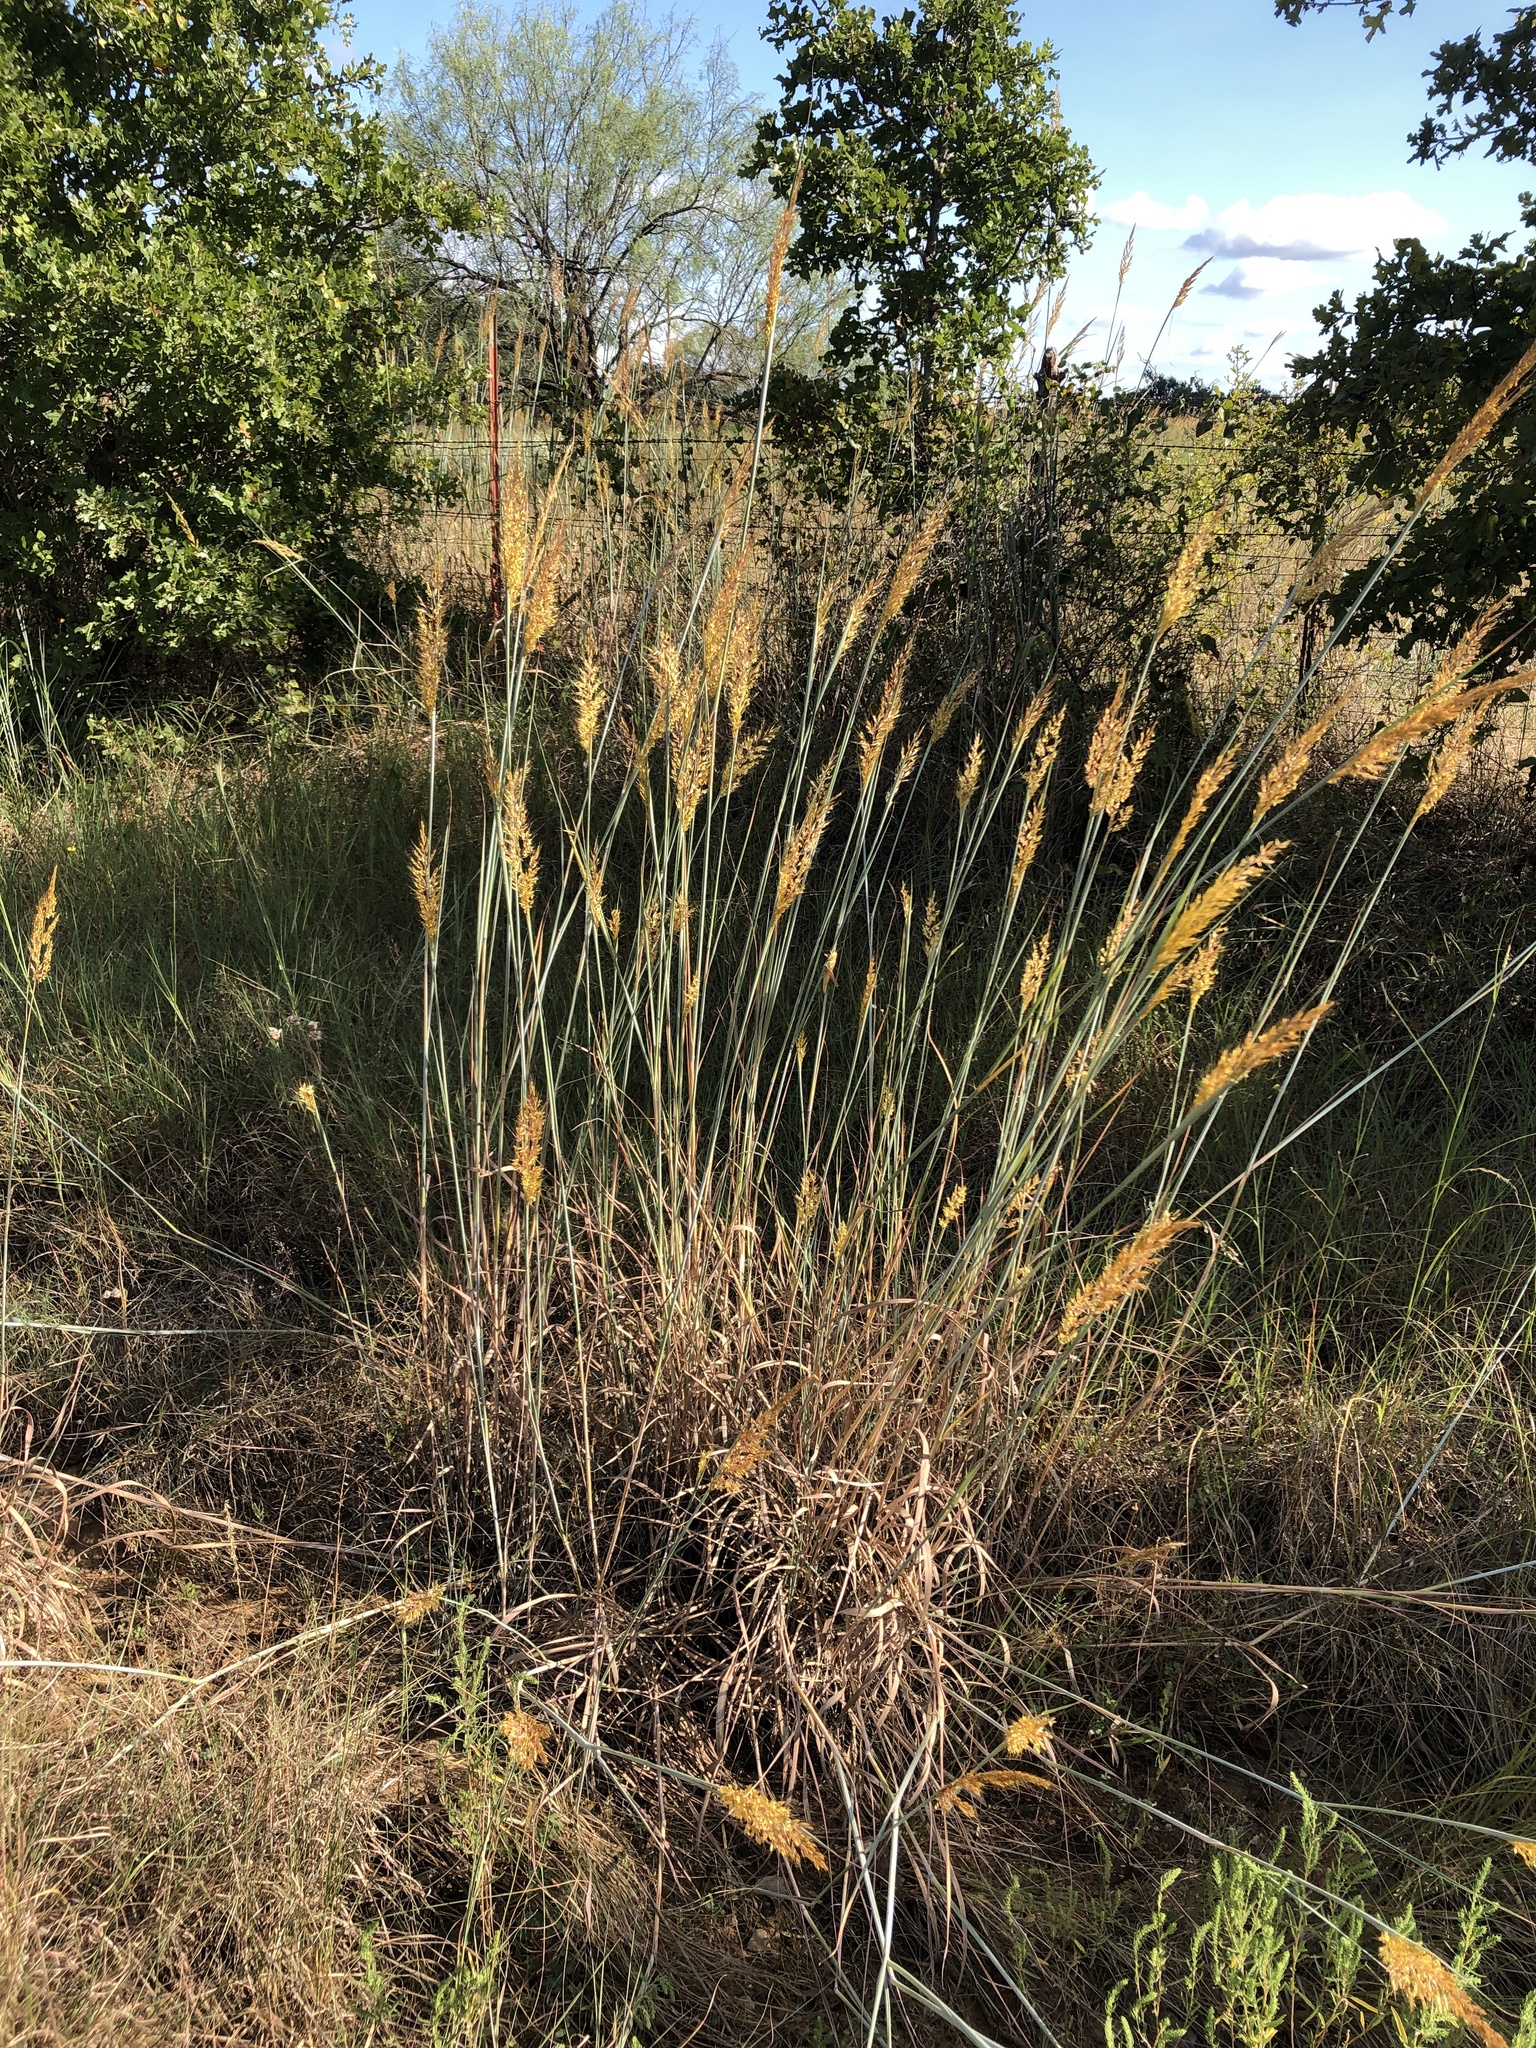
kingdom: Plantae
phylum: Tracheophyta
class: Liliopsida
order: Poales
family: Poaceae
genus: Sorghastrum
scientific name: Sorghastrum nutans
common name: Indian grass
